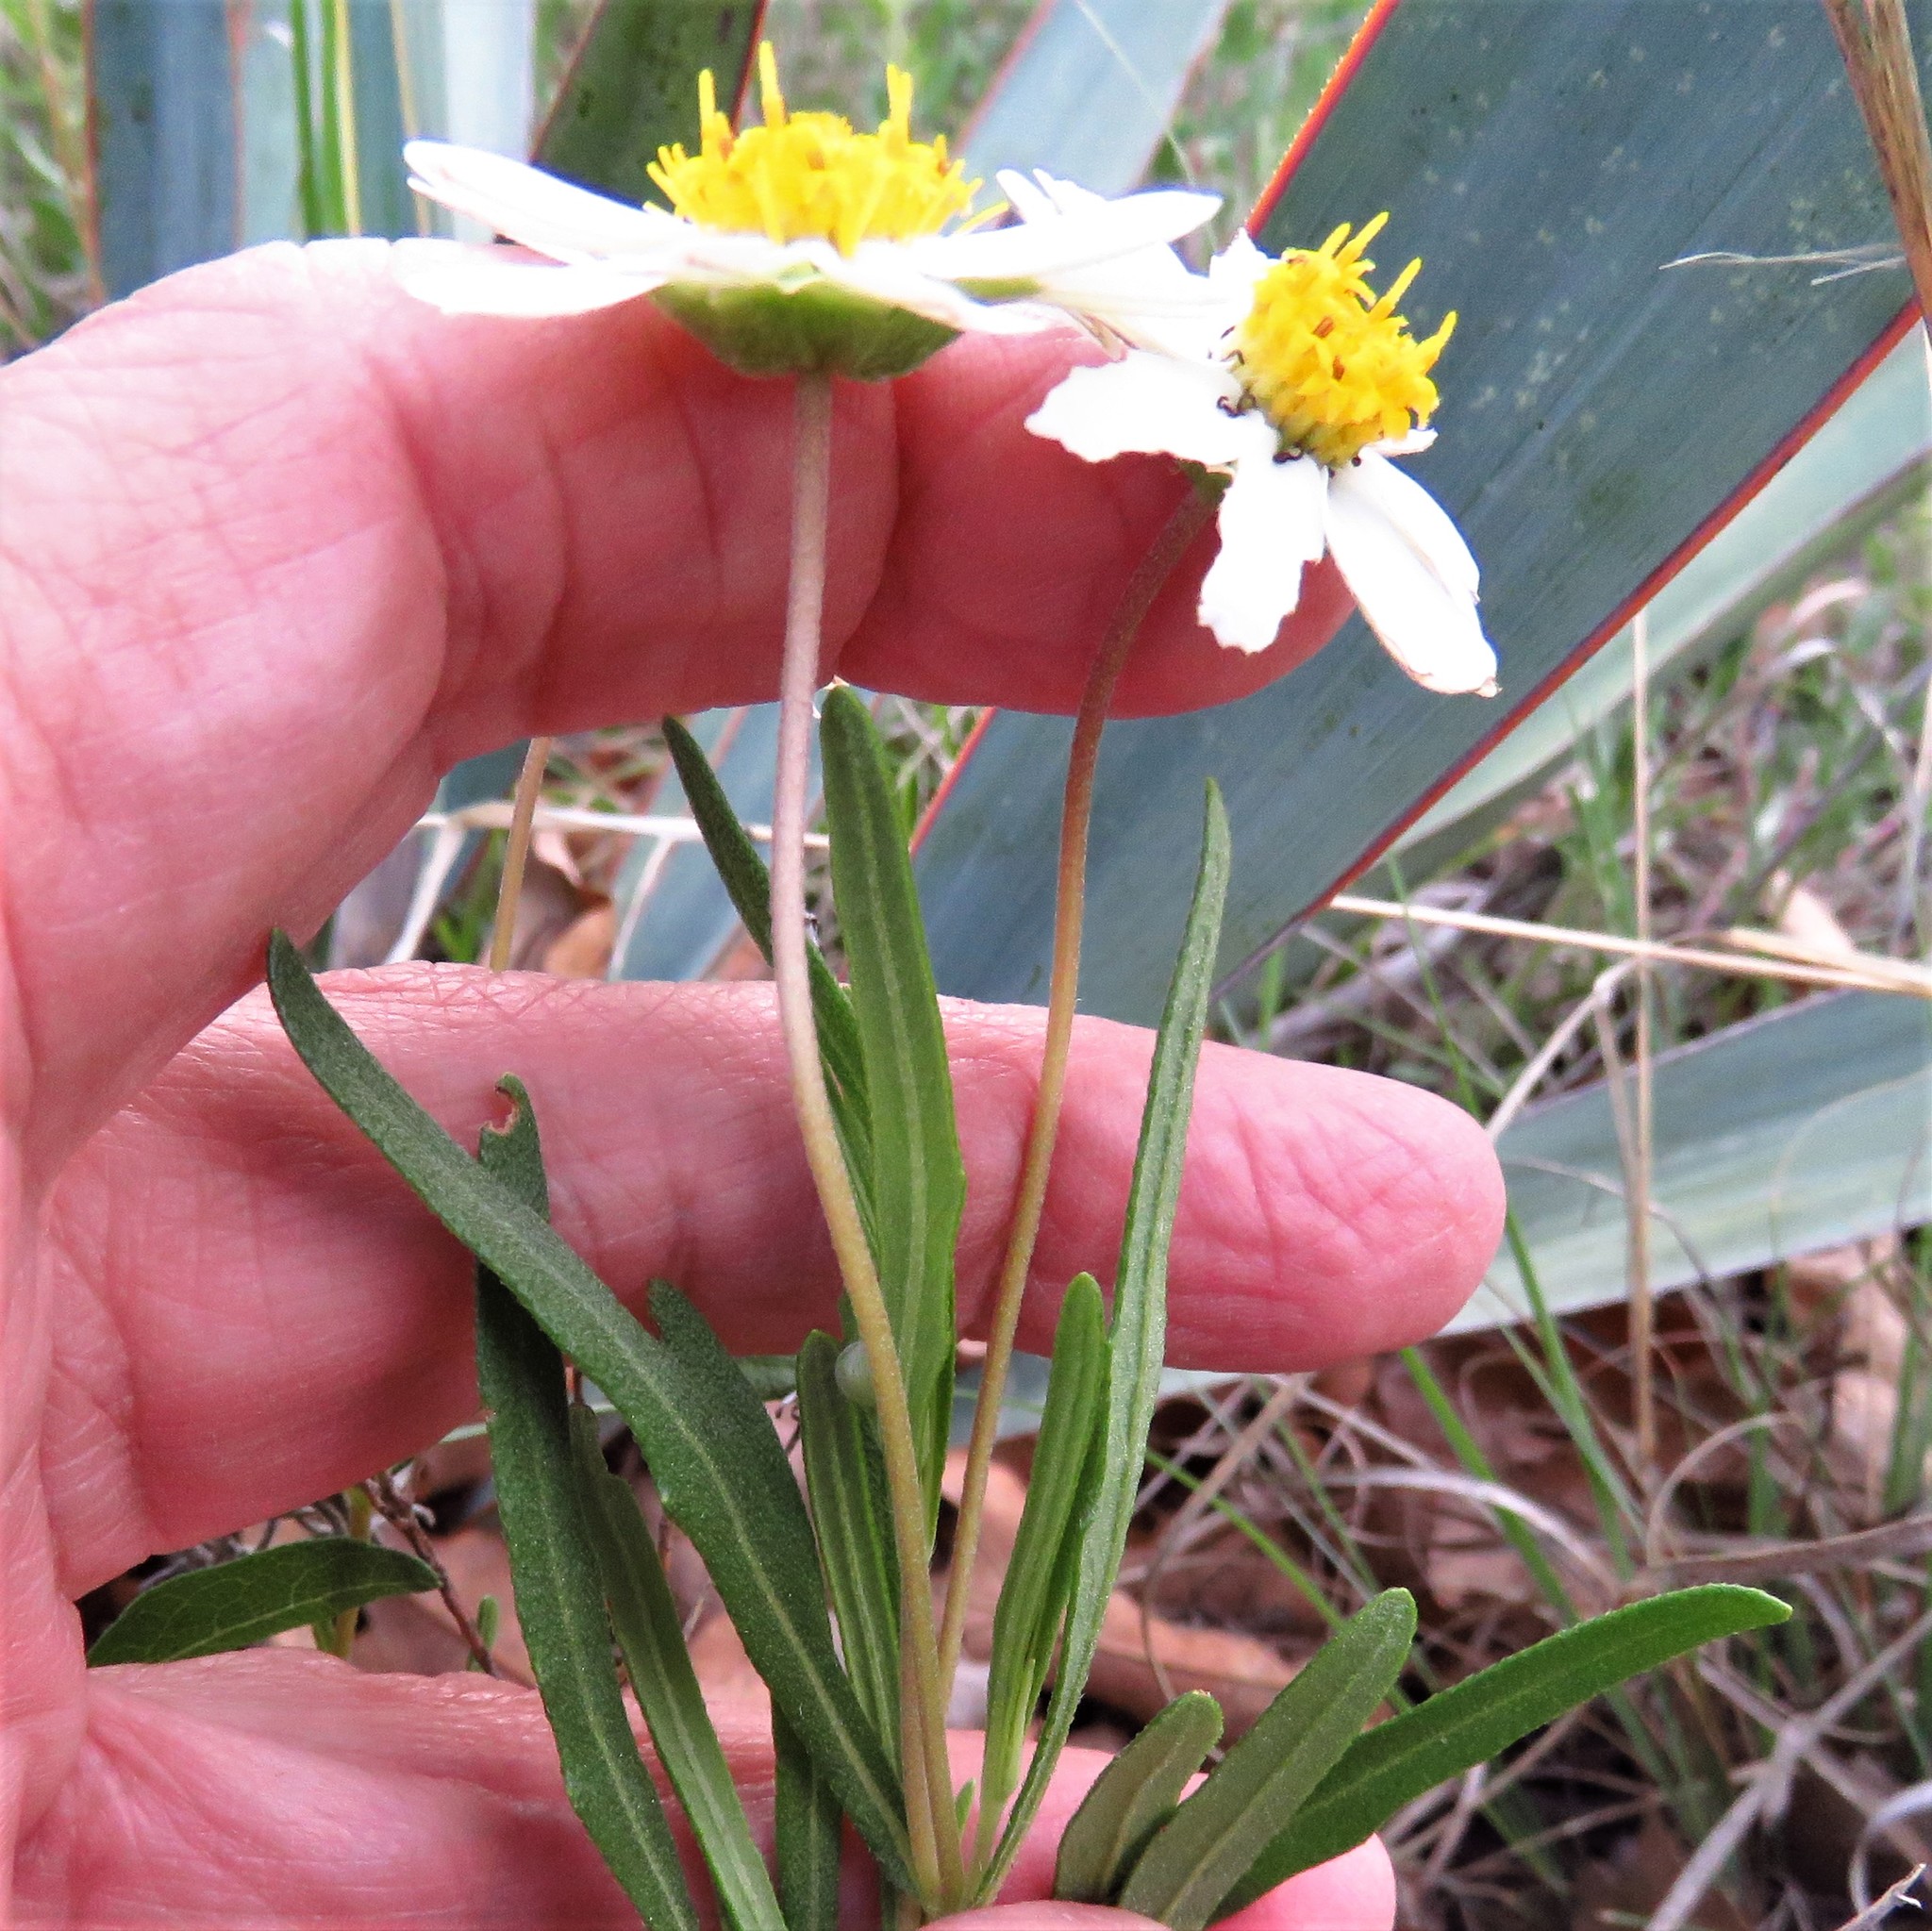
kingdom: Plantae
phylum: Tracheophyta
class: Magnoliopsida
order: Asterales
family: Asteraceae
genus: Melampodium
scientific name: Melampodium leucanthum
